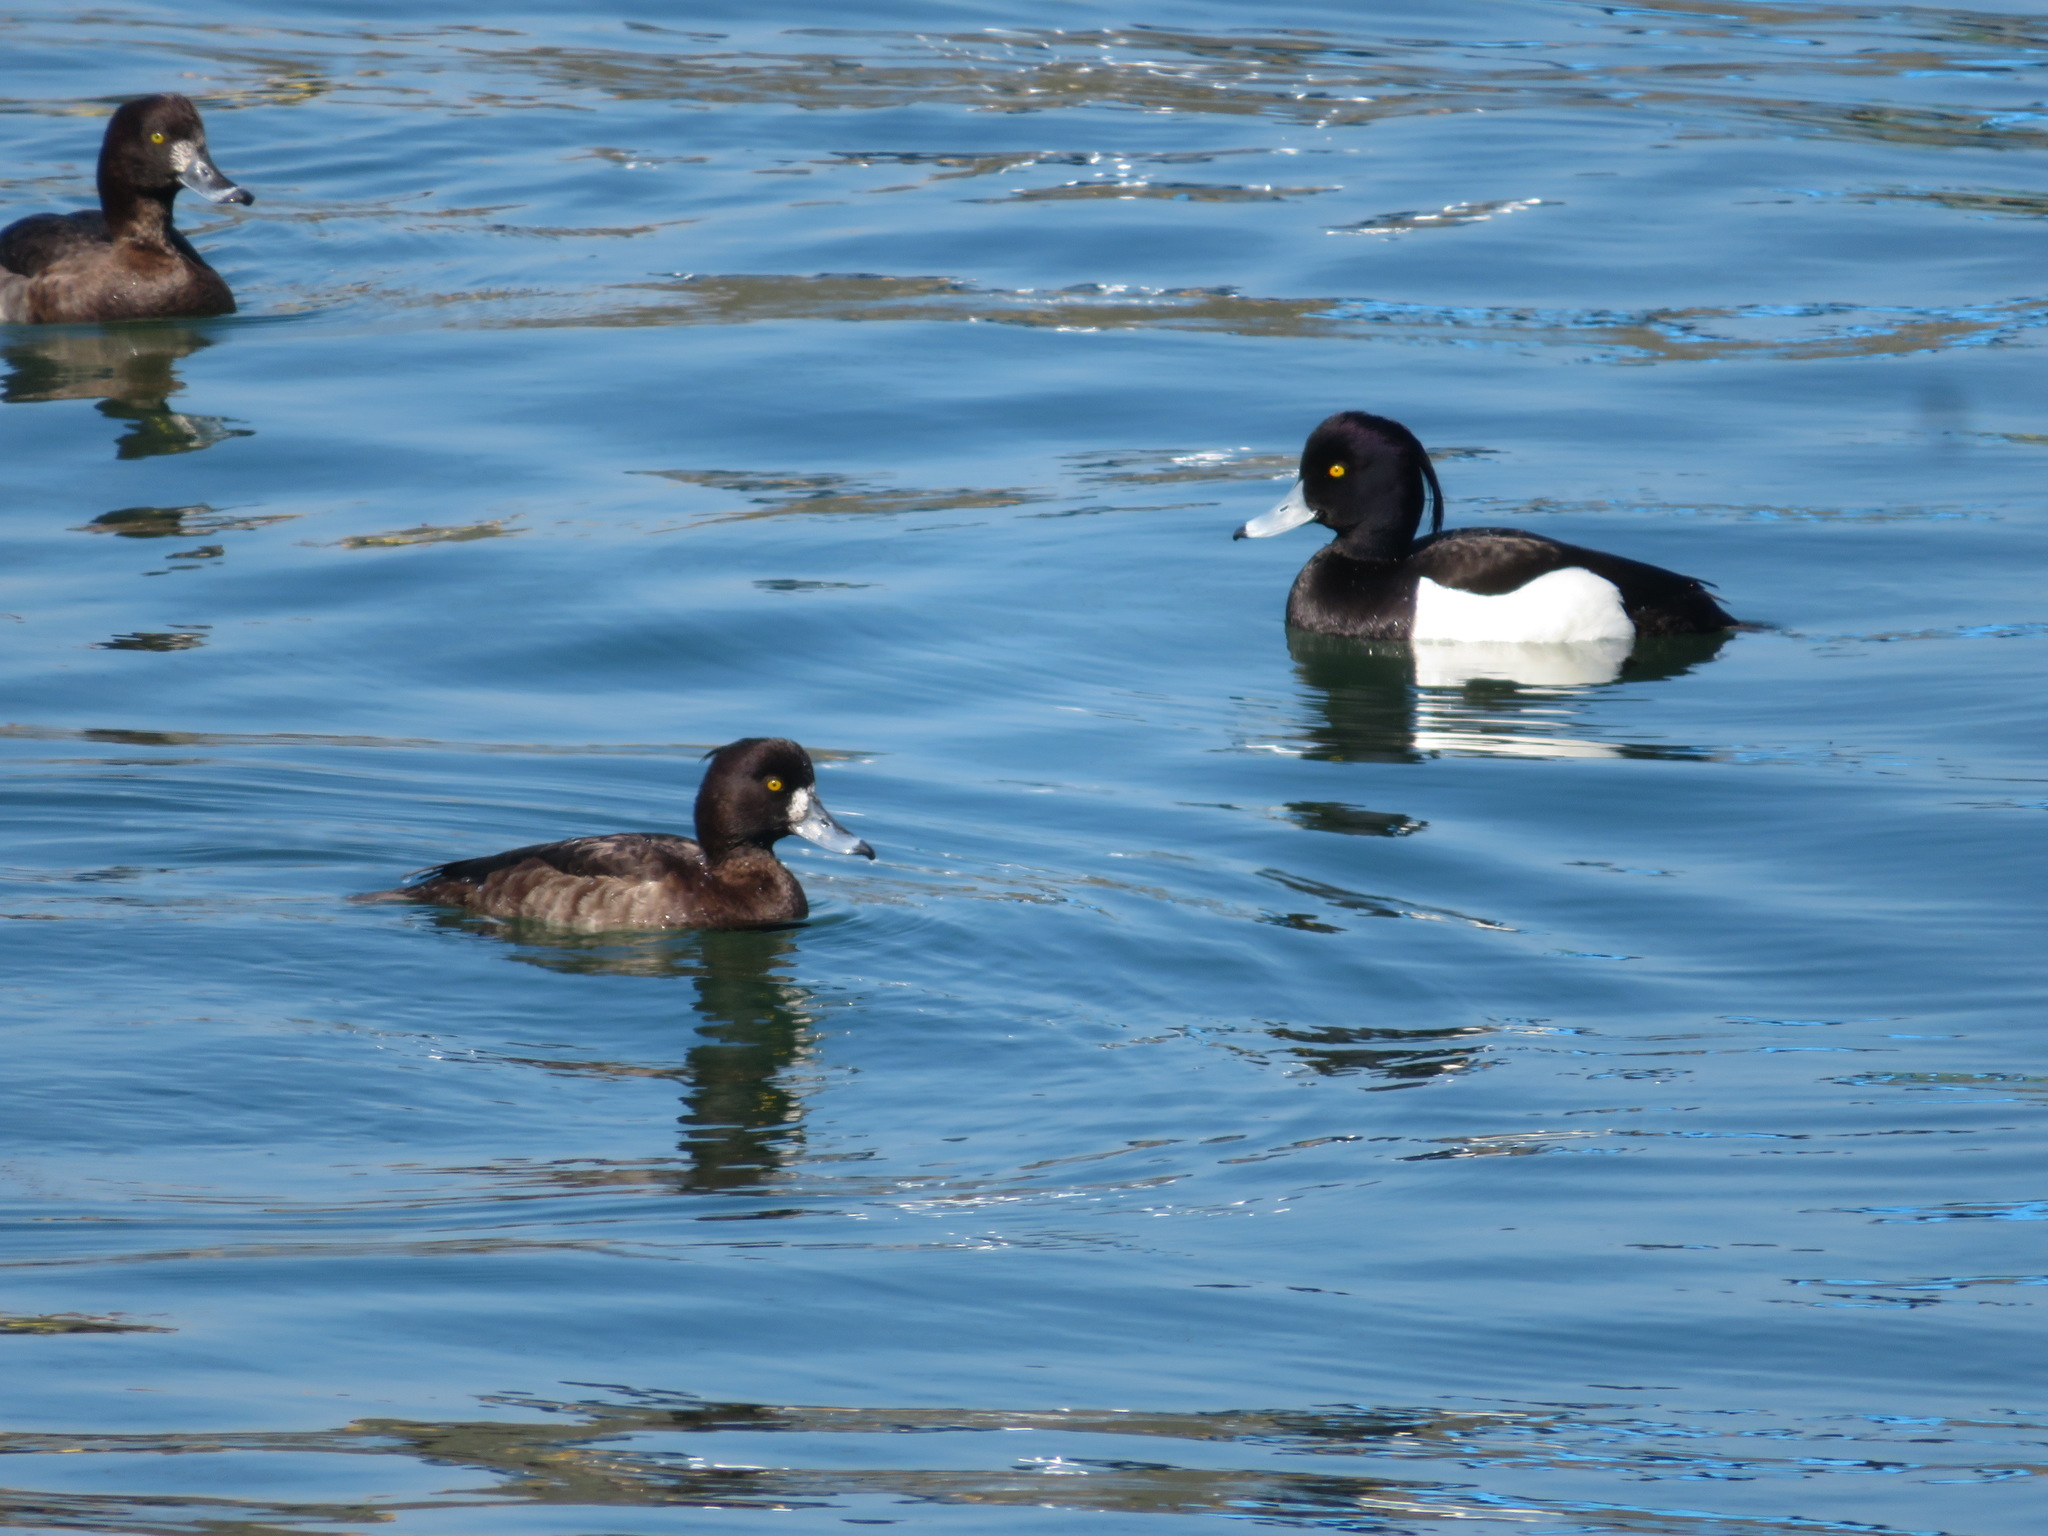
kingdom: Animalia
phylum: Chordata
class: Aves
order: Anseriformes
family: Anatidae
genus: Aythya
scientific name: Aythya fuligula
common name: Tufted duck
